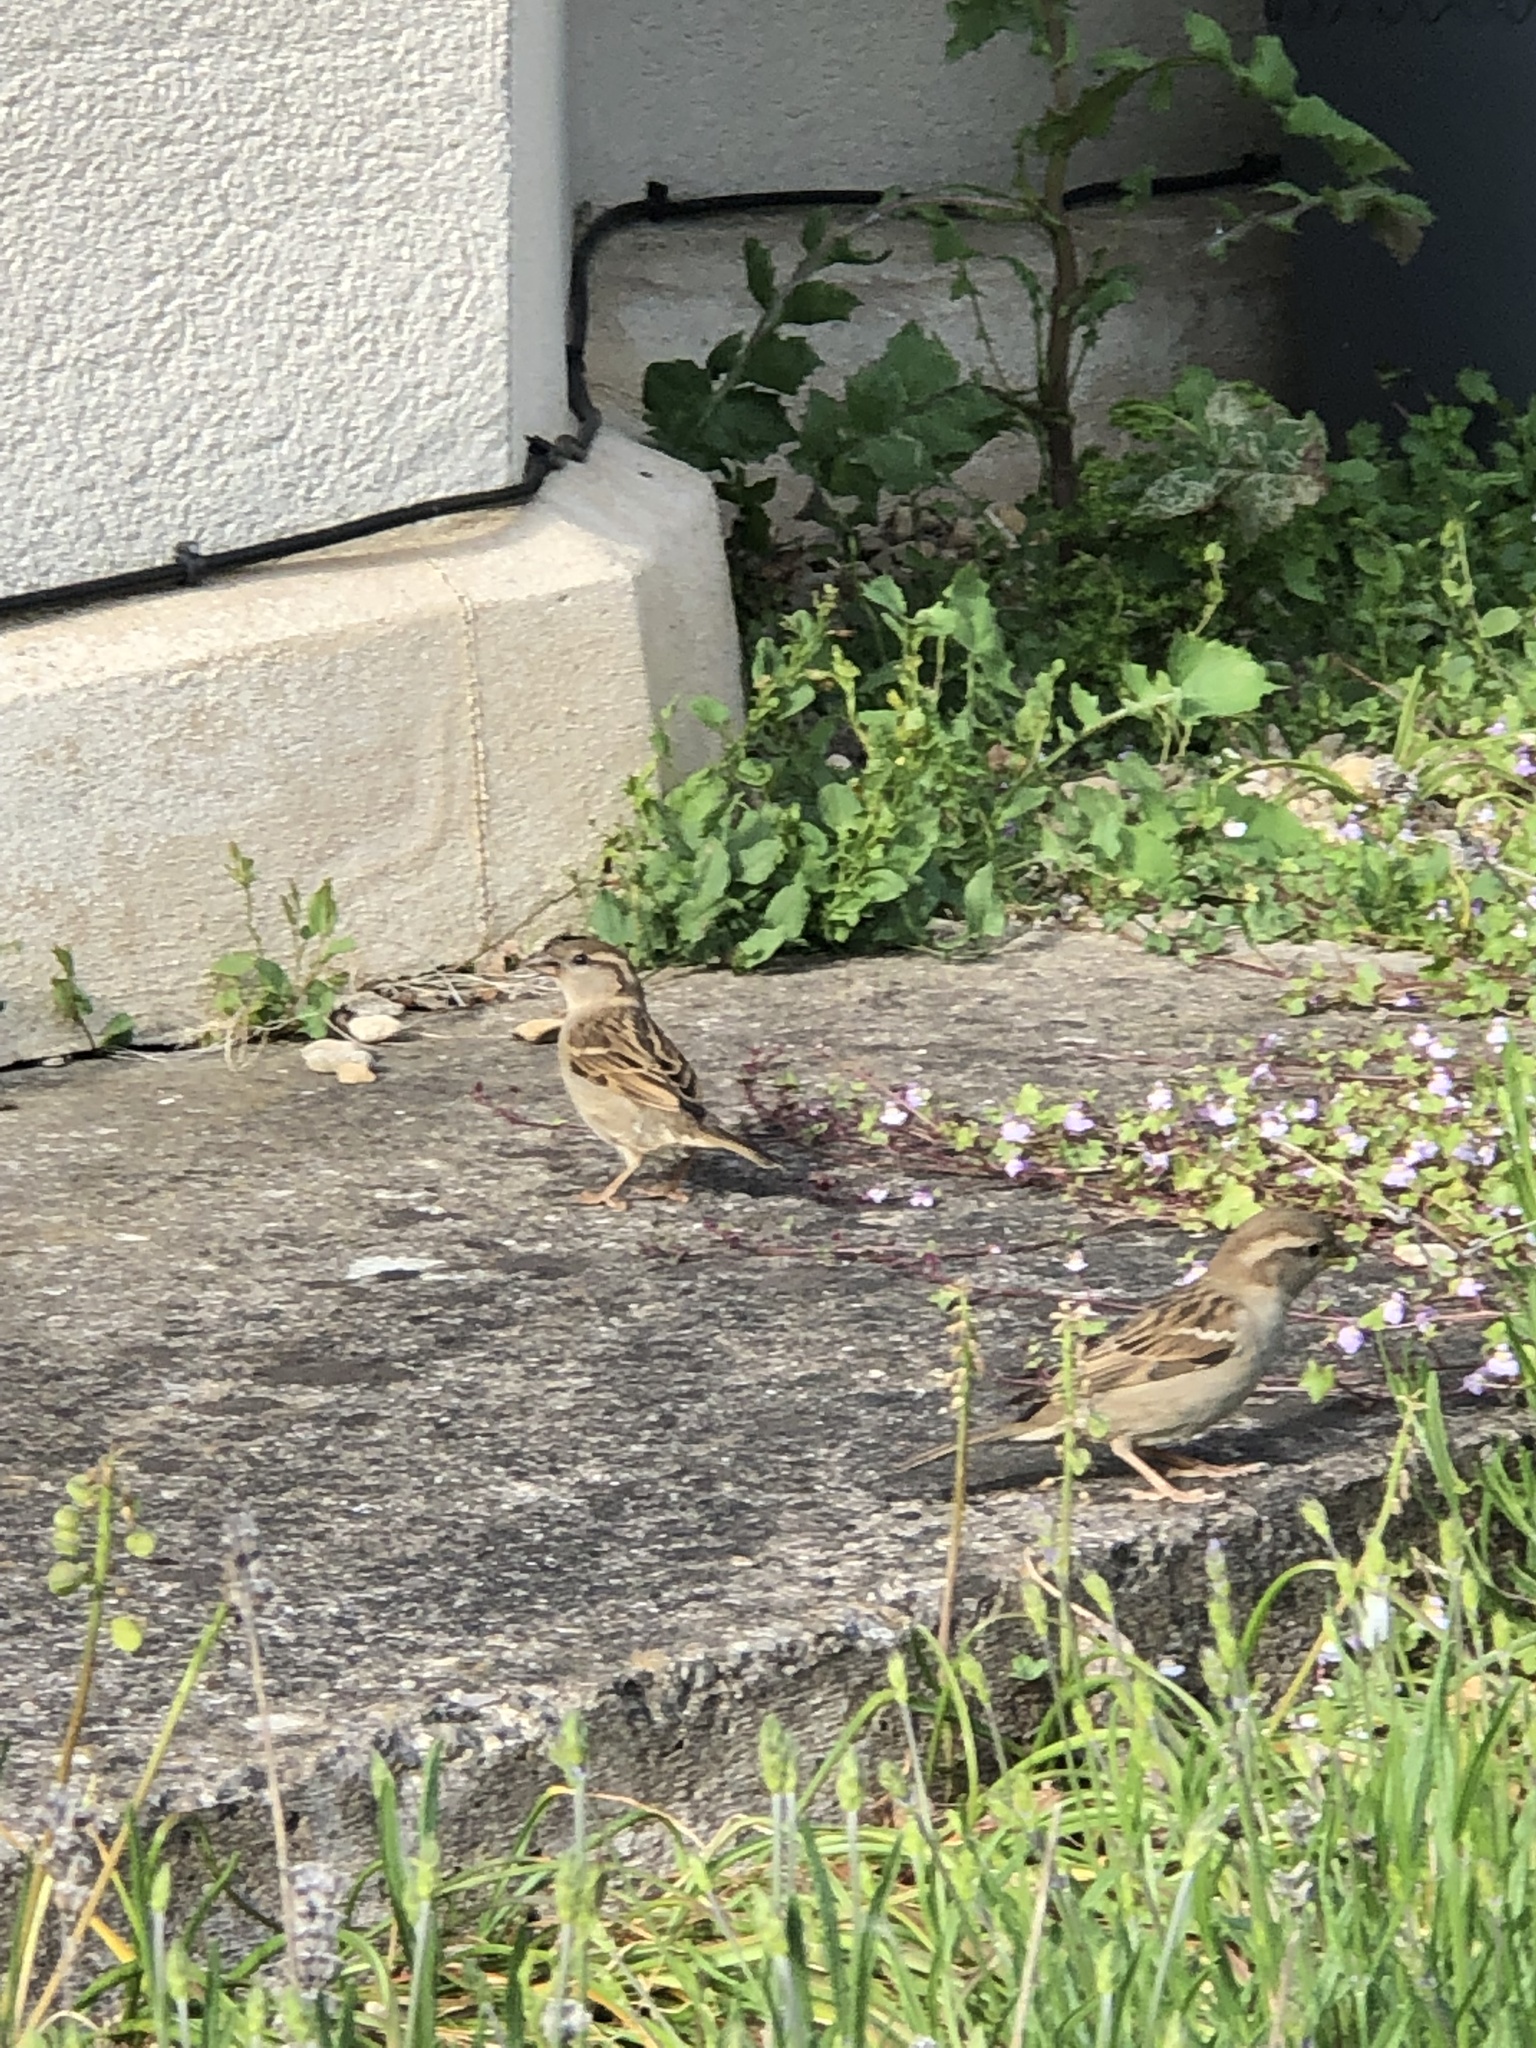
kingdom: Animalia
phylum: Chordata
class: Aves
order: Passeriformes
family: Passeridae
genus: Passer
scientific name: Passer domesticus
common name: House sparrow
